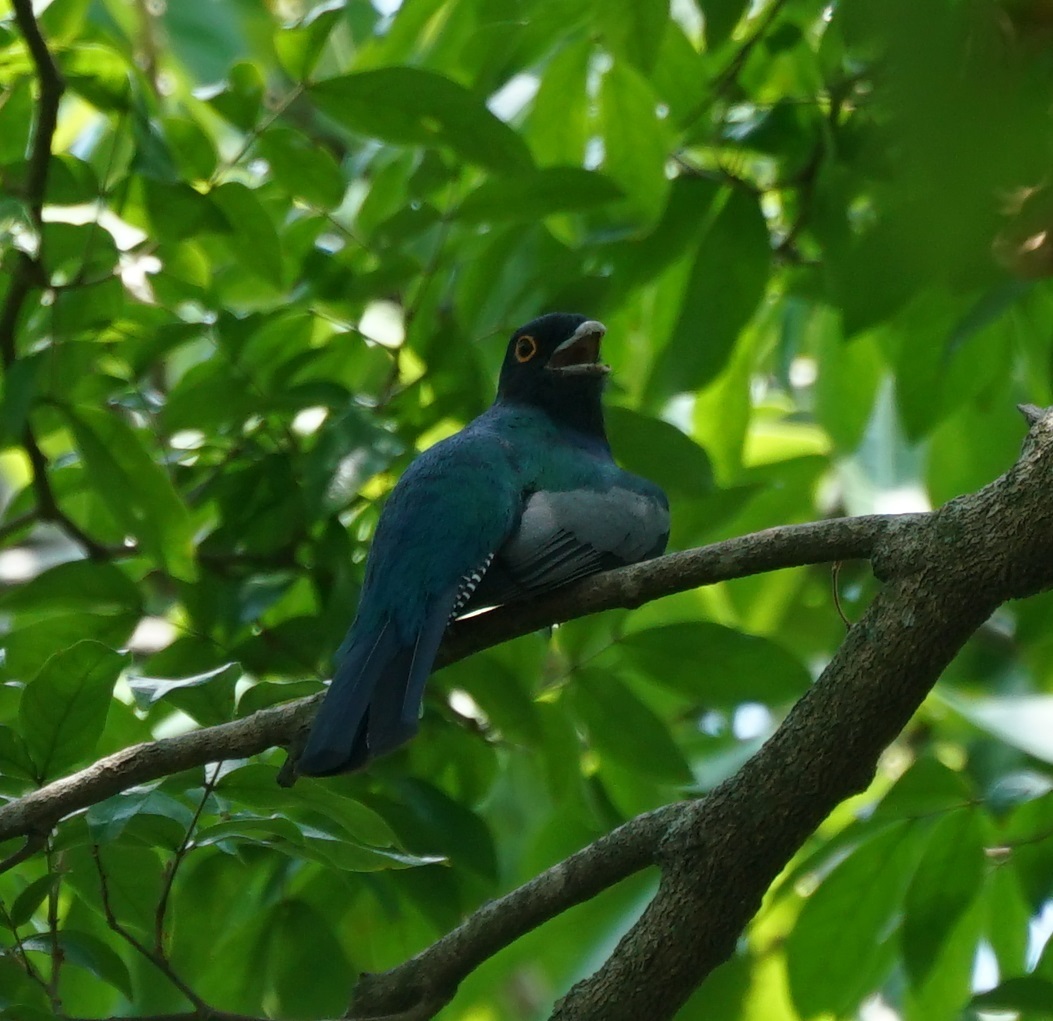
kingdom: Animalia
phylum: Chordata
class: Aves
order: Trogoniformes
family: Trogonidae
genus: Trogon
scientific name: Trogon curucui
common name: Blue-crowned trogon
